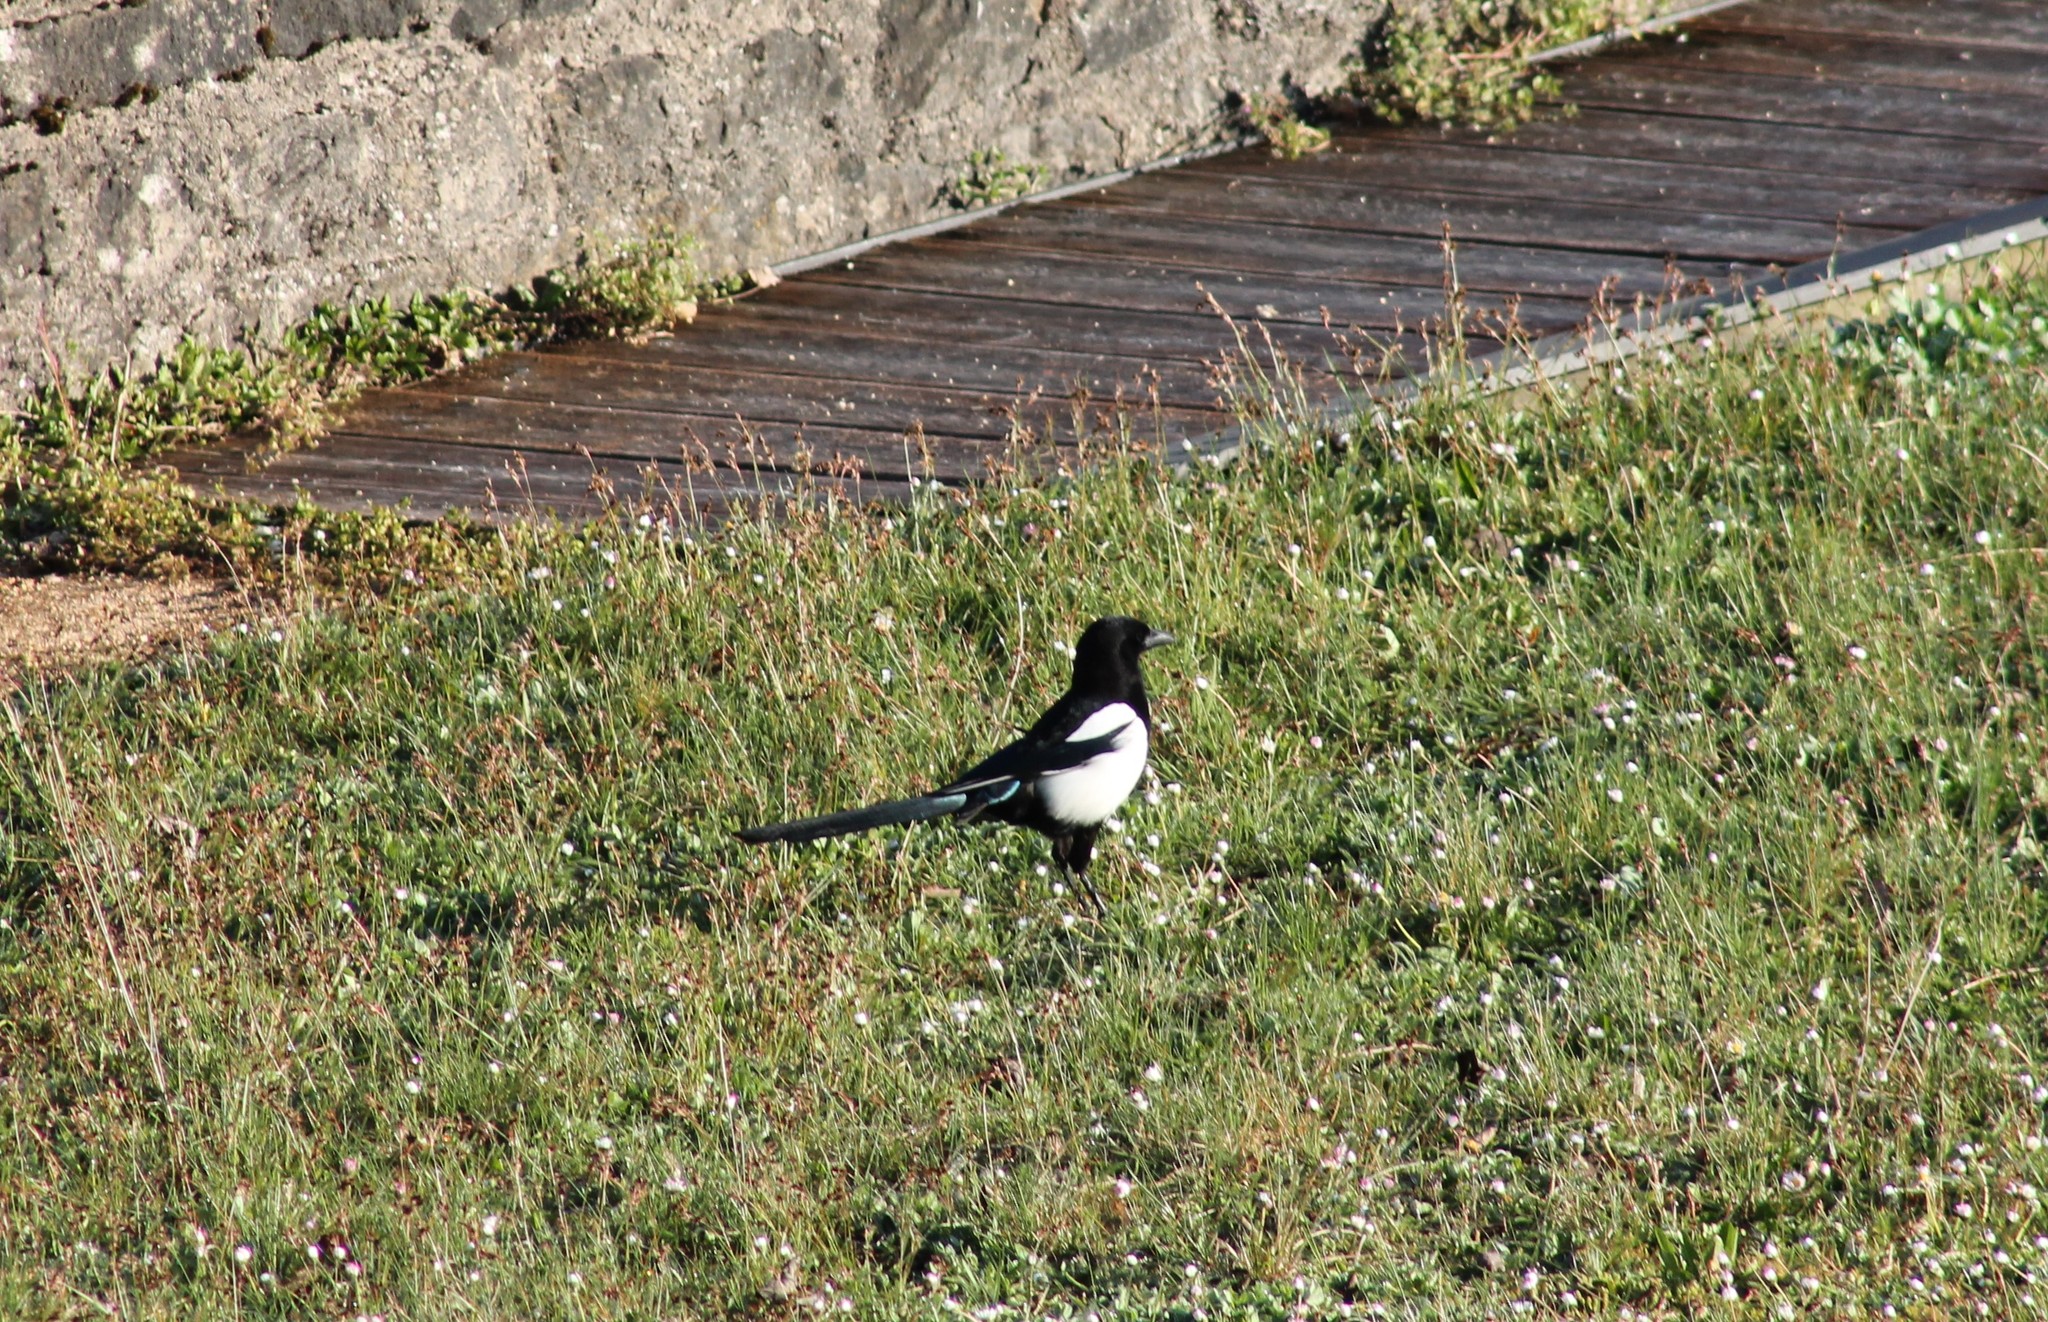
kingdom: Animalia
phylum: Chordata
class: Aves
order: Passeriformes
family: Corvidae
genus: Pica
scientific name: Pica pica
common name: Eurasian magpie
